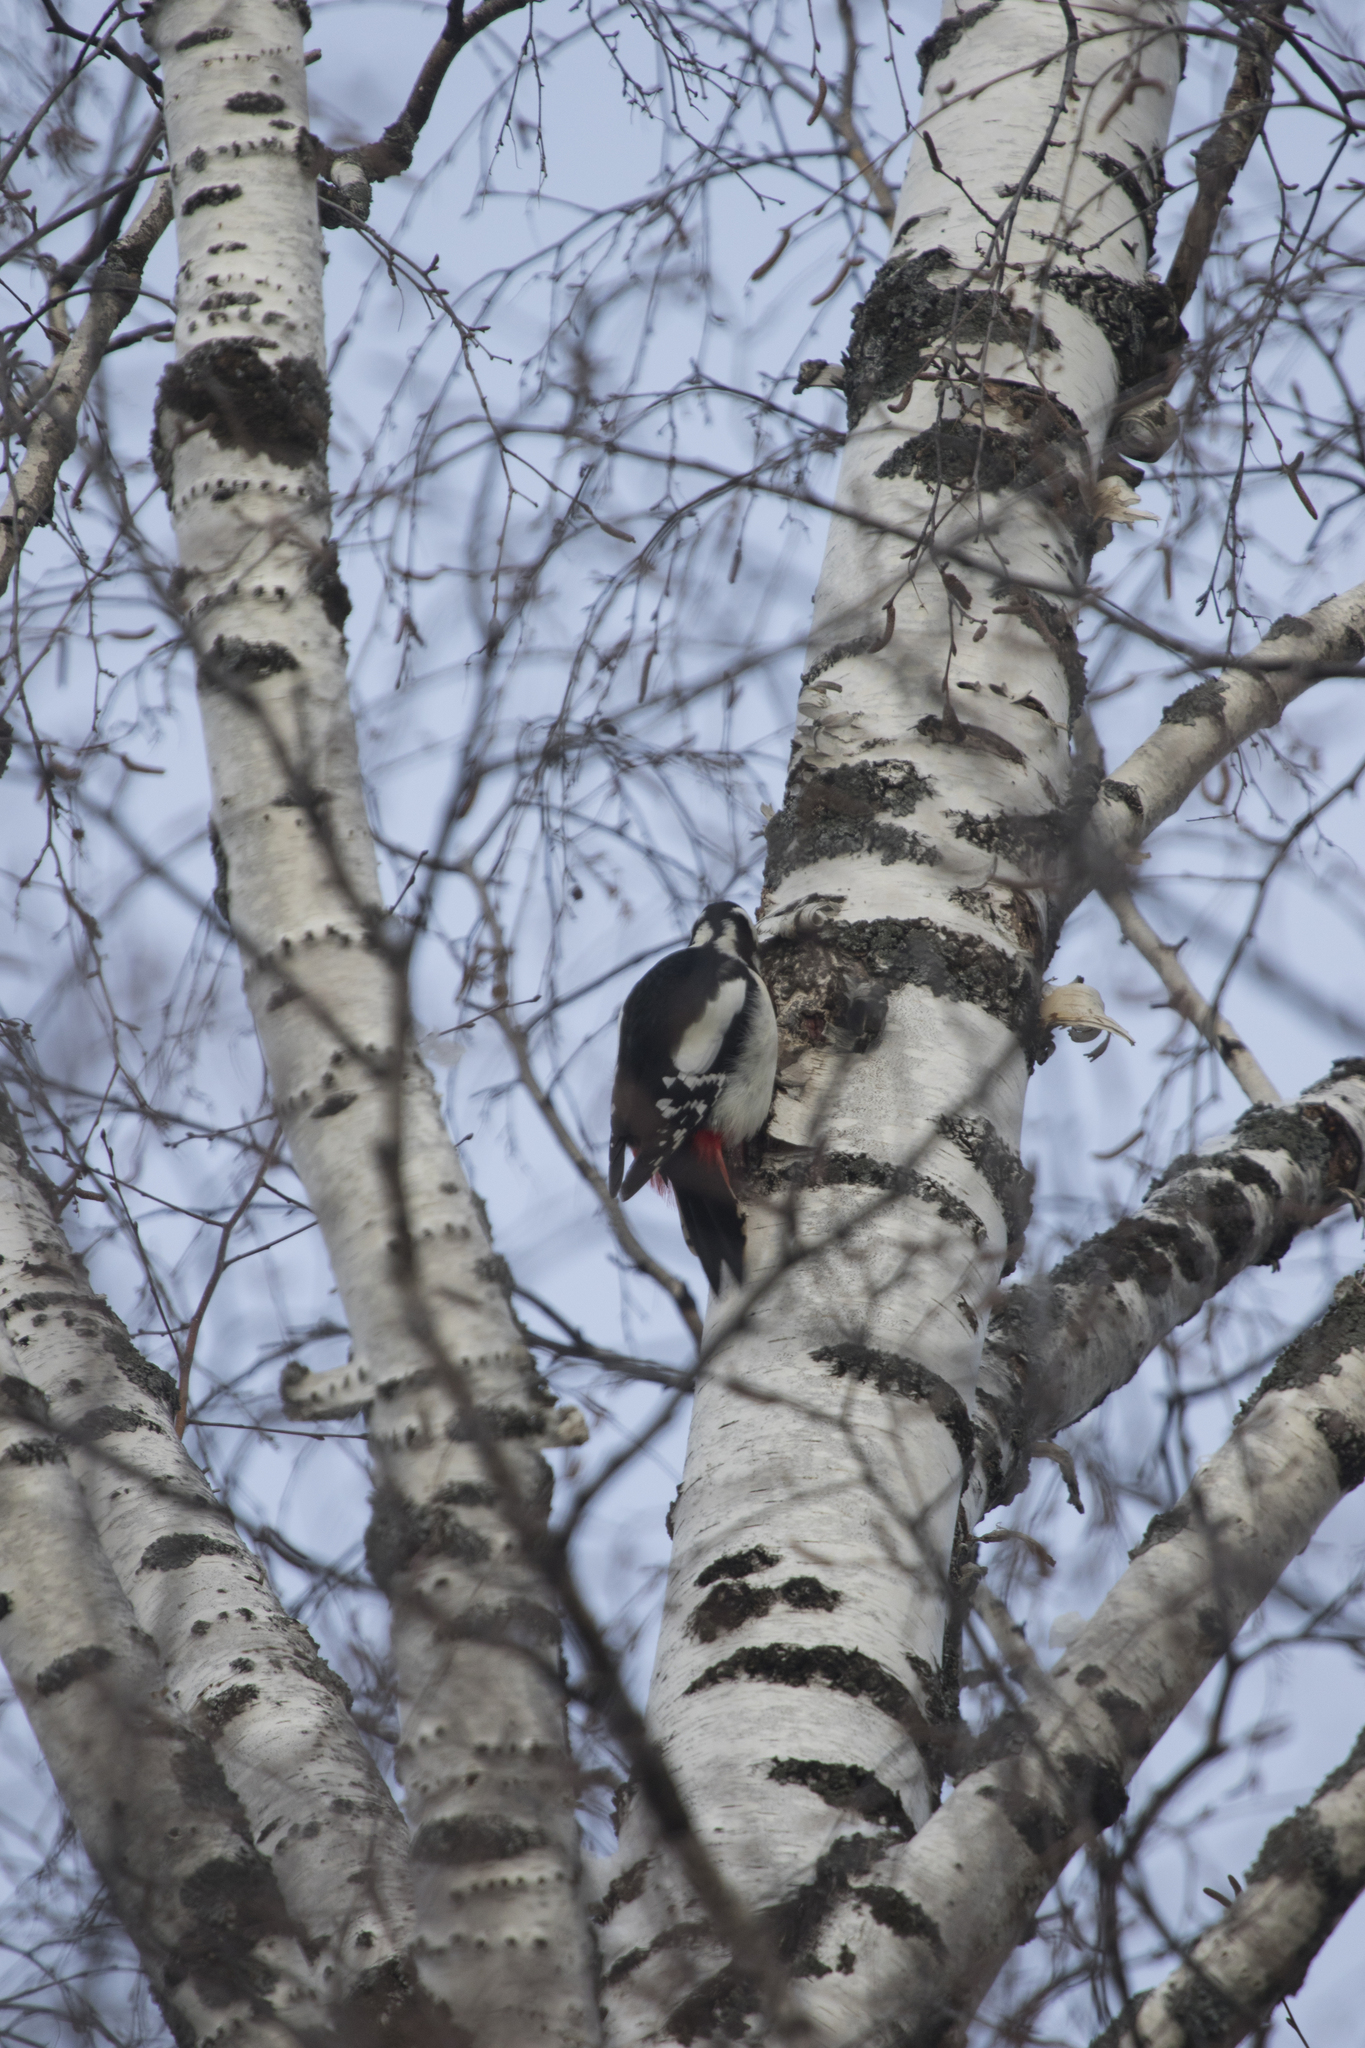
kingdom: Animalia
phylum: Chordata
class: Aves
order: Piciformes
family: Picidae
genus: Dendrocopos
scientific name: Dendrocopos major
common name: Great spotted woodpecker
